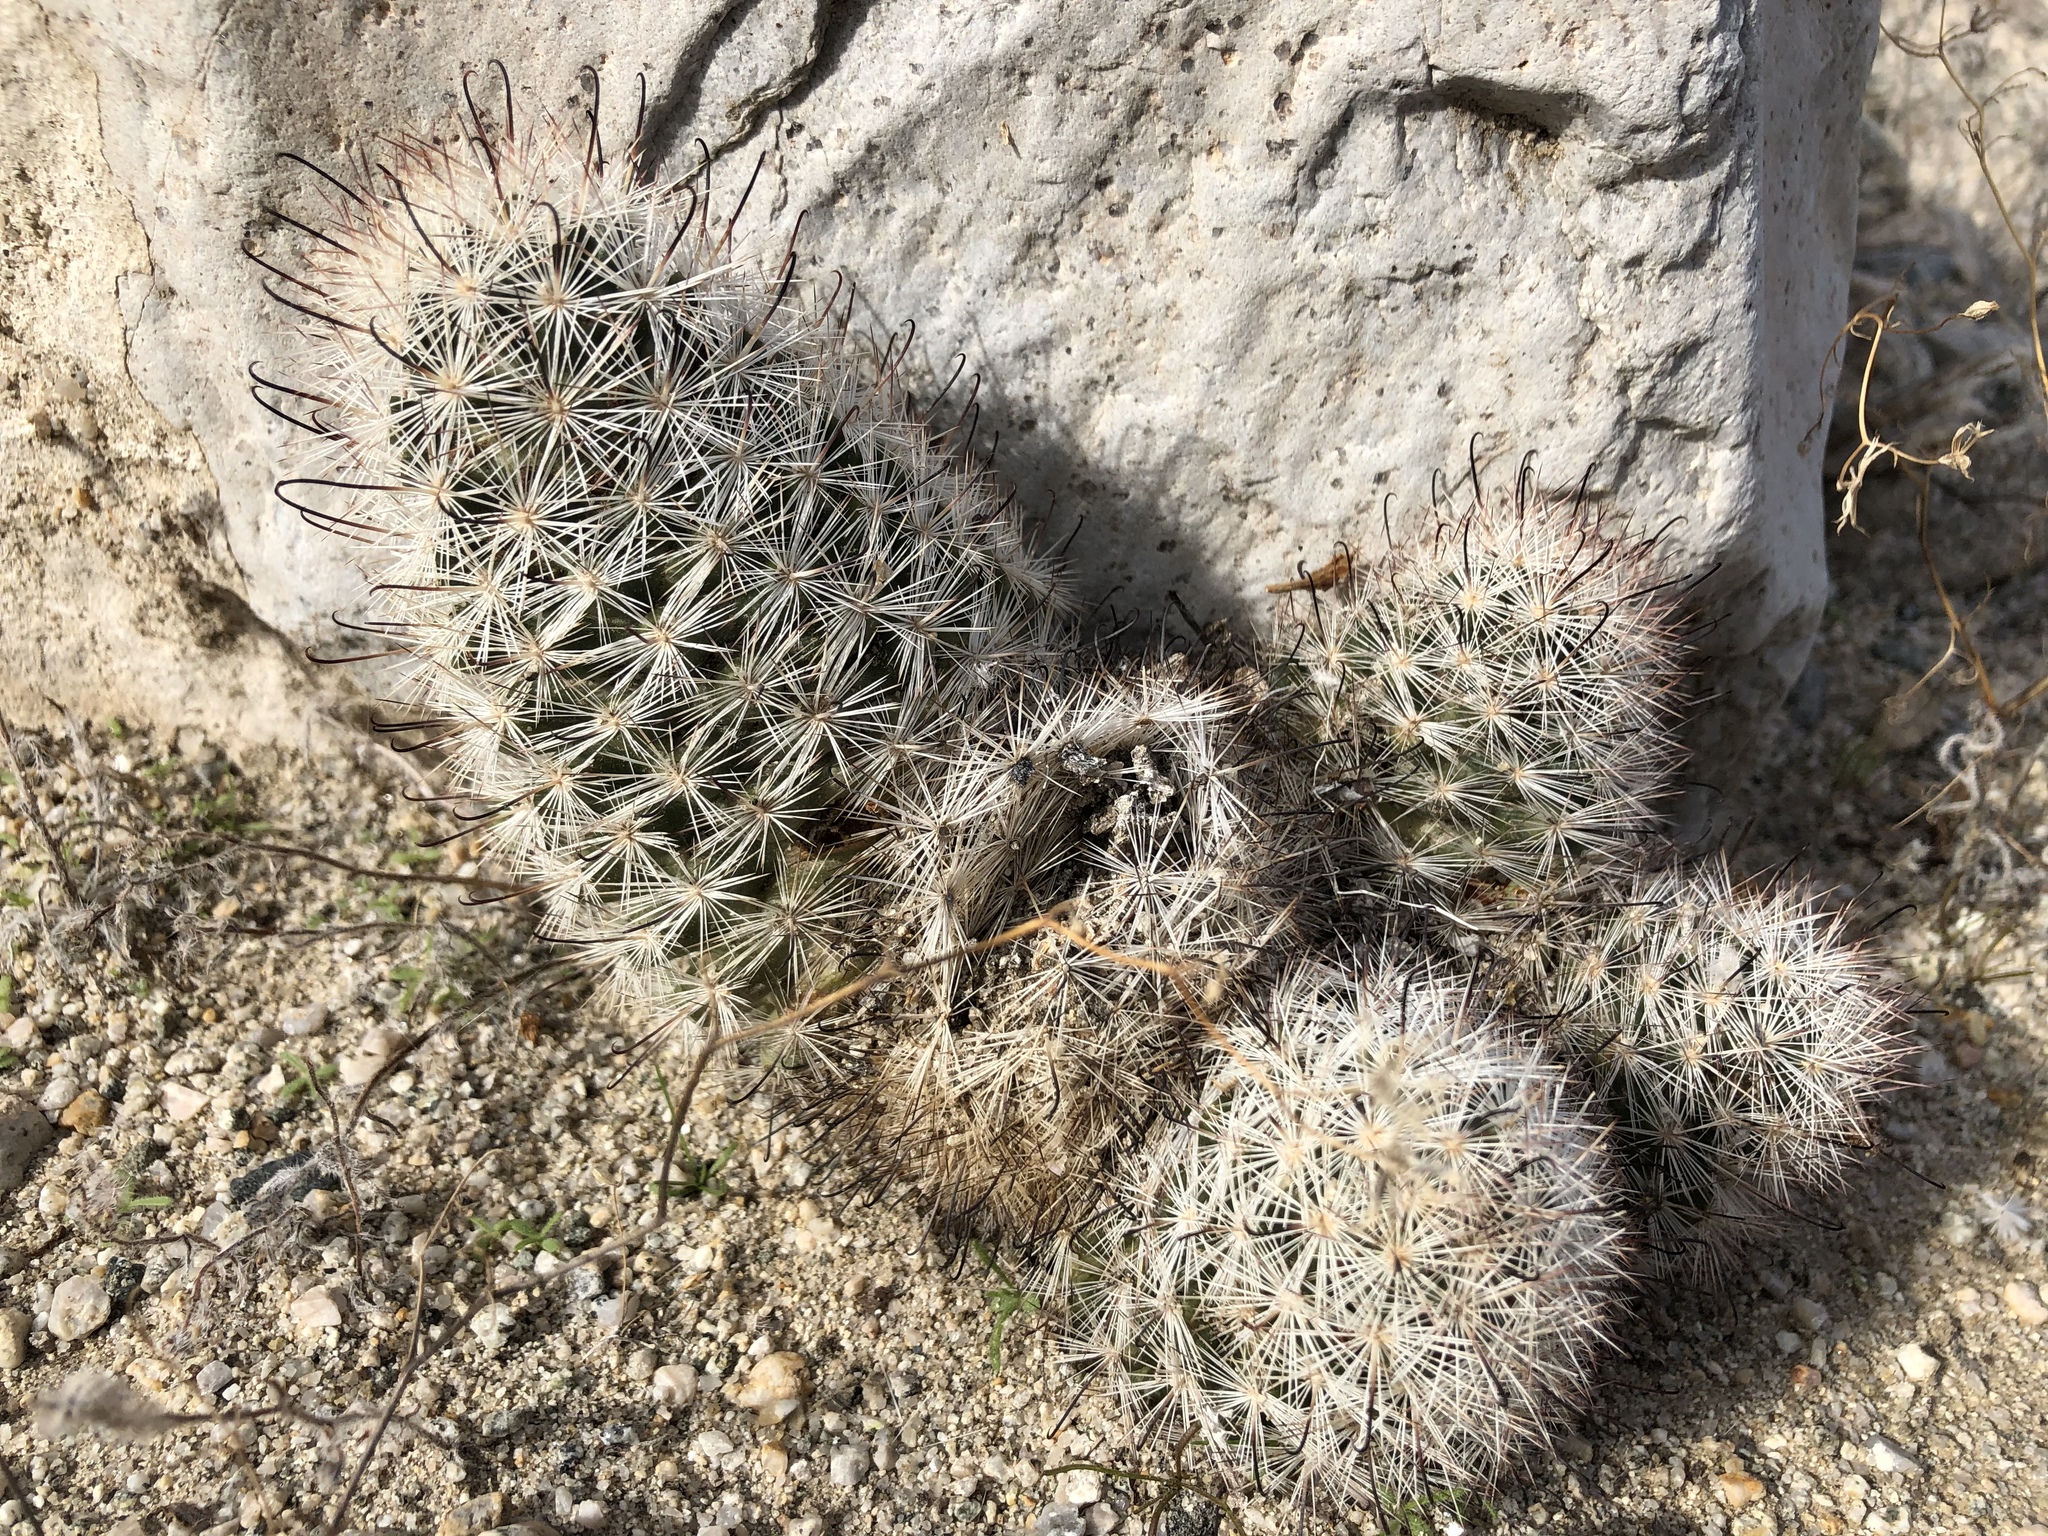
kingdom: Plantae
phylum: Tracheophyta
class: Magnoliopsida
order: Caryophyllales
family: Cactaceae
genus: Cochemiea
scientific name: Cochemiea tetrancistra
